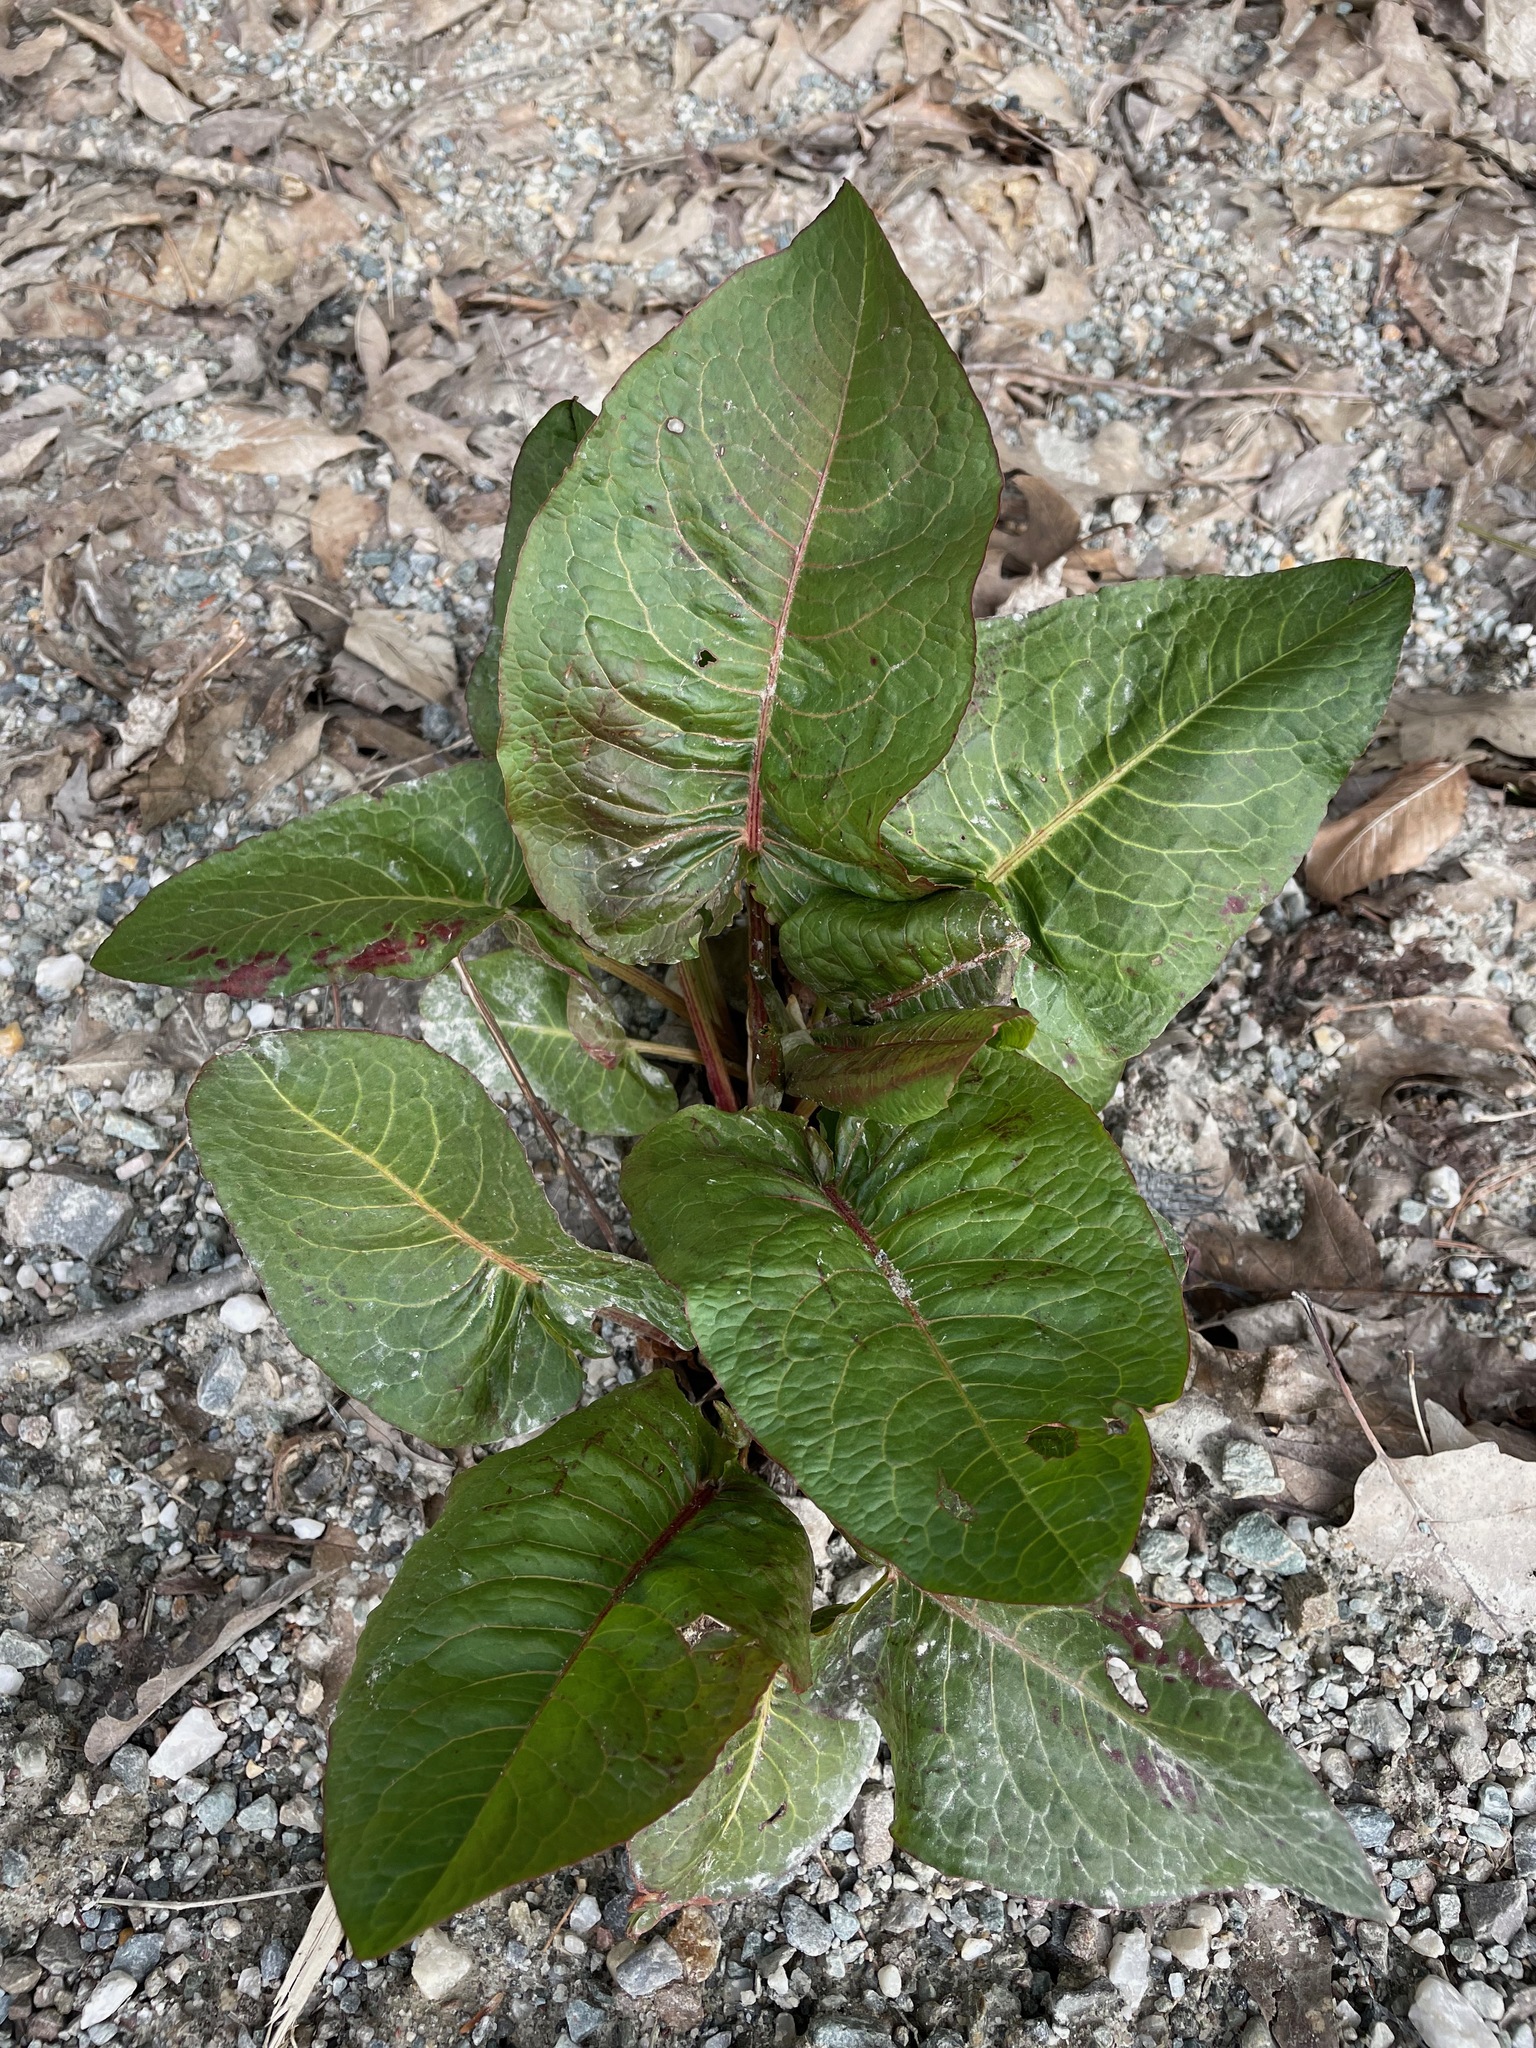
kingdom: Plantae
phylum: Tracheophyta
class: Magnoliopsida
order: Caryophyllales
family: Polygonaceae
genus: Rumex
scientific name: Rumex obtusifolius
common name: Bitter dock
